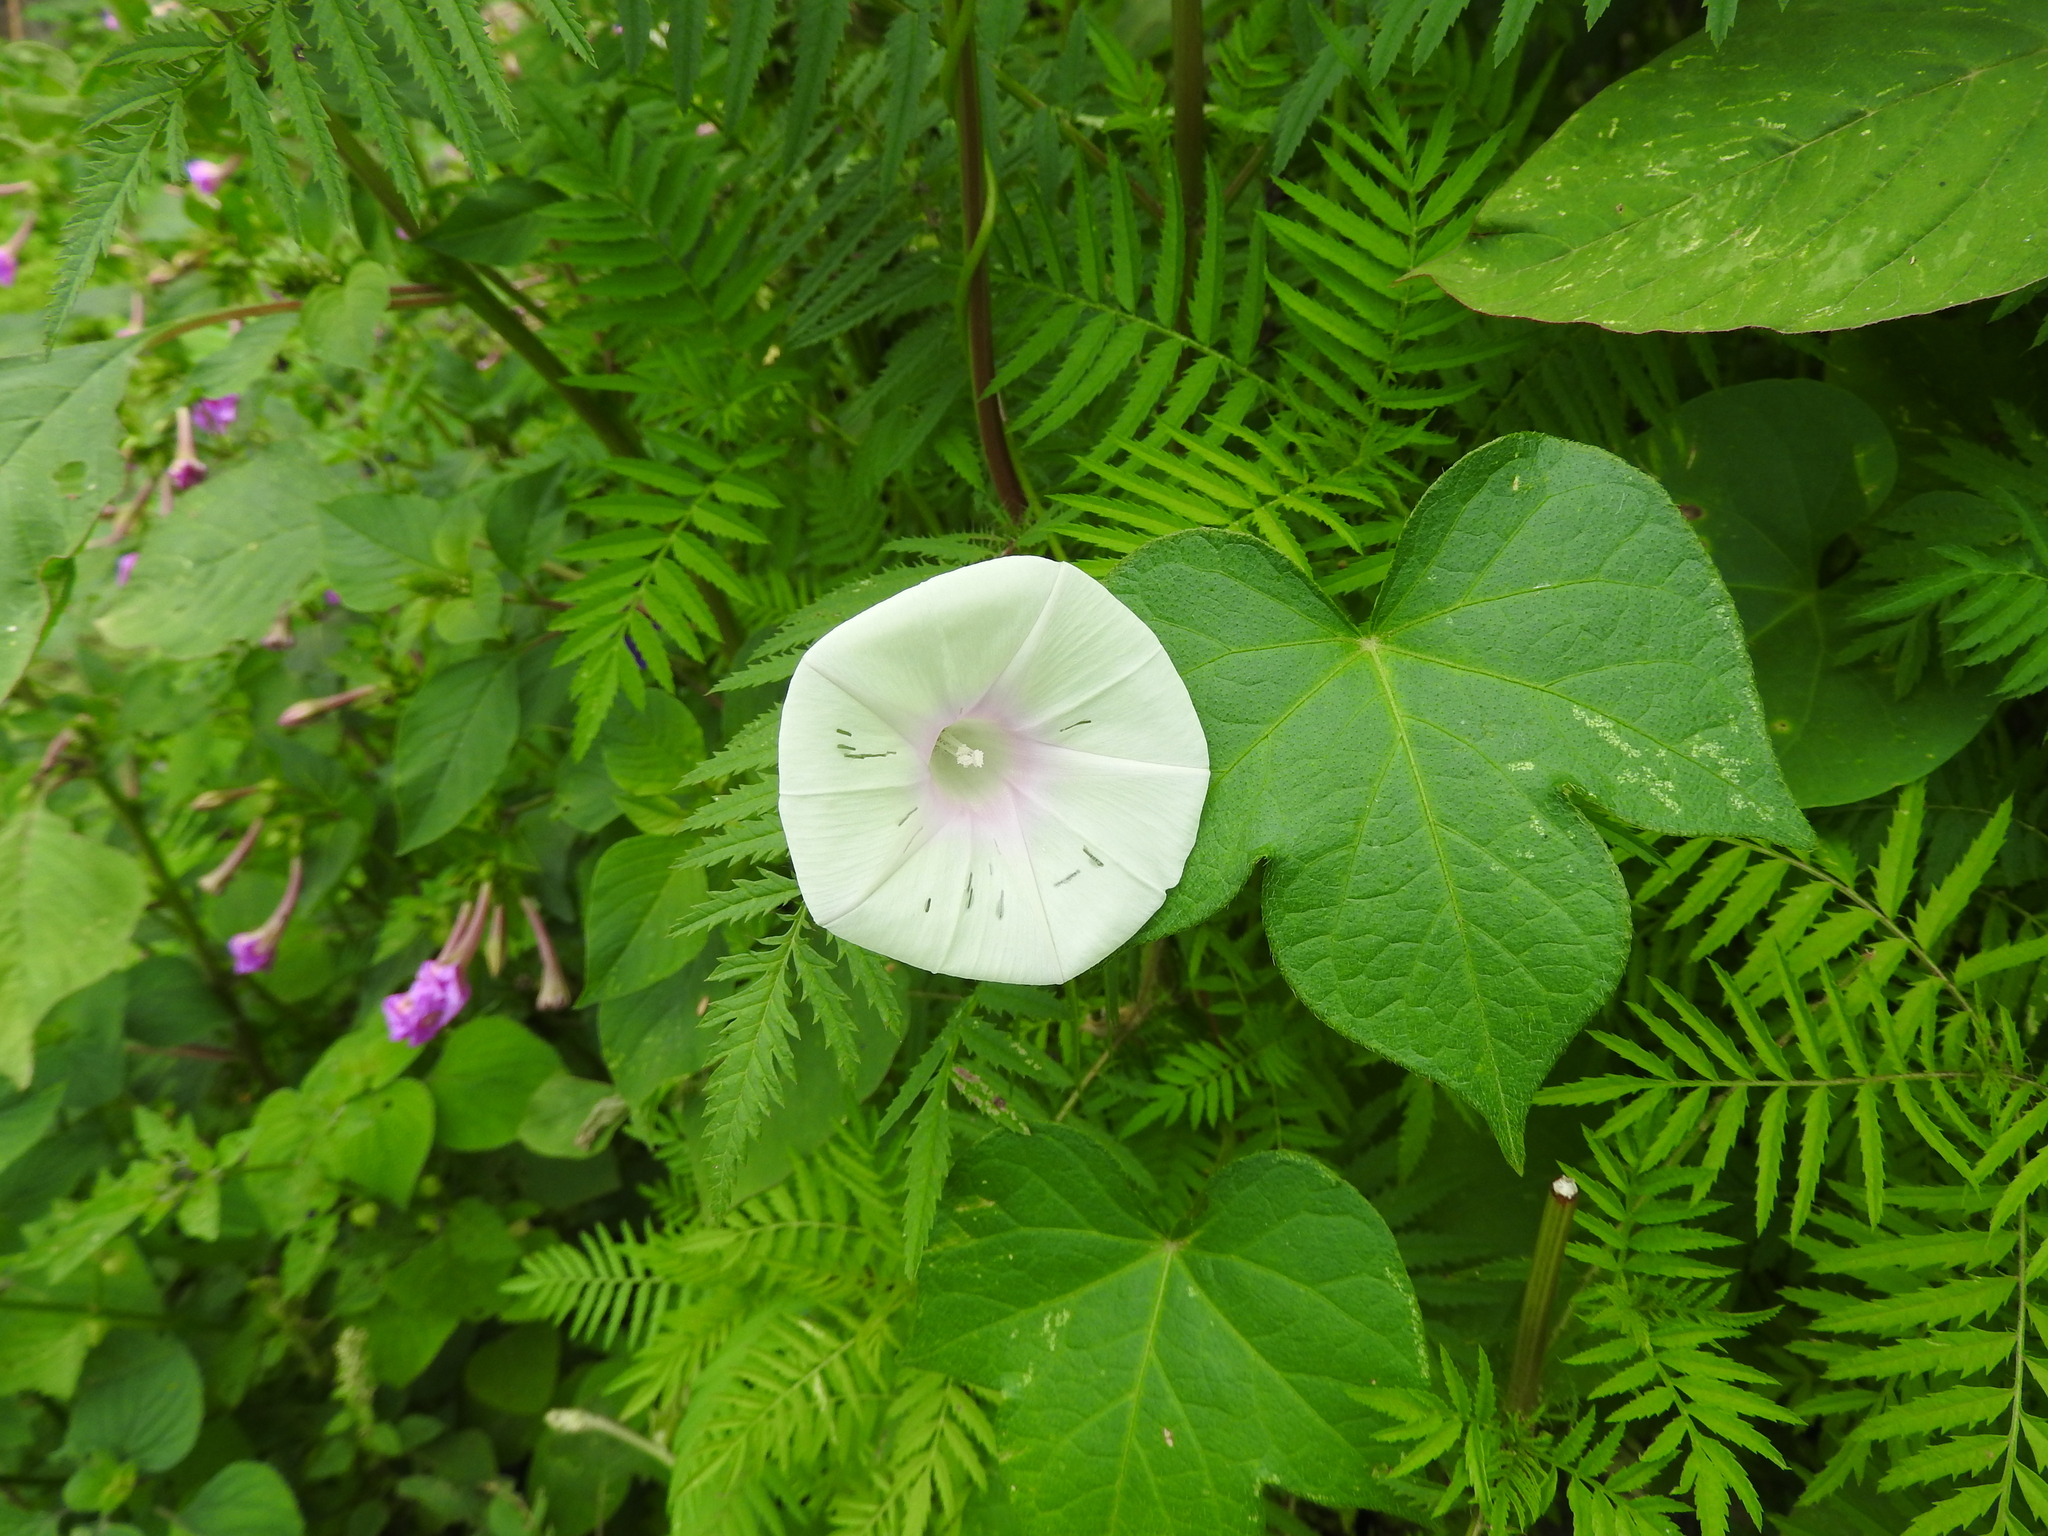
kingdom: Plantae
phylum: Tracheophyta
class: Magnoliopsida
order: Solanales
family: Convolvulaceae
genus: Ipomoea
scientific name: Ipomoea purpurea
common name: Common morning-glory
